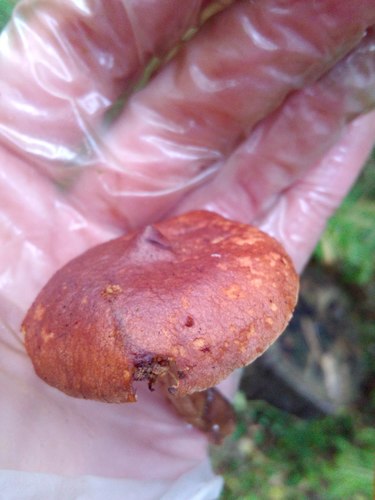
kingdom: Fungi
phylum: Basidiomycota
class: Agaricomycetes
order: Russulales
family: Russulaceae
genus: Lactarius
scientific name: Lactarius rufus
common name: Rufous milk-cap
